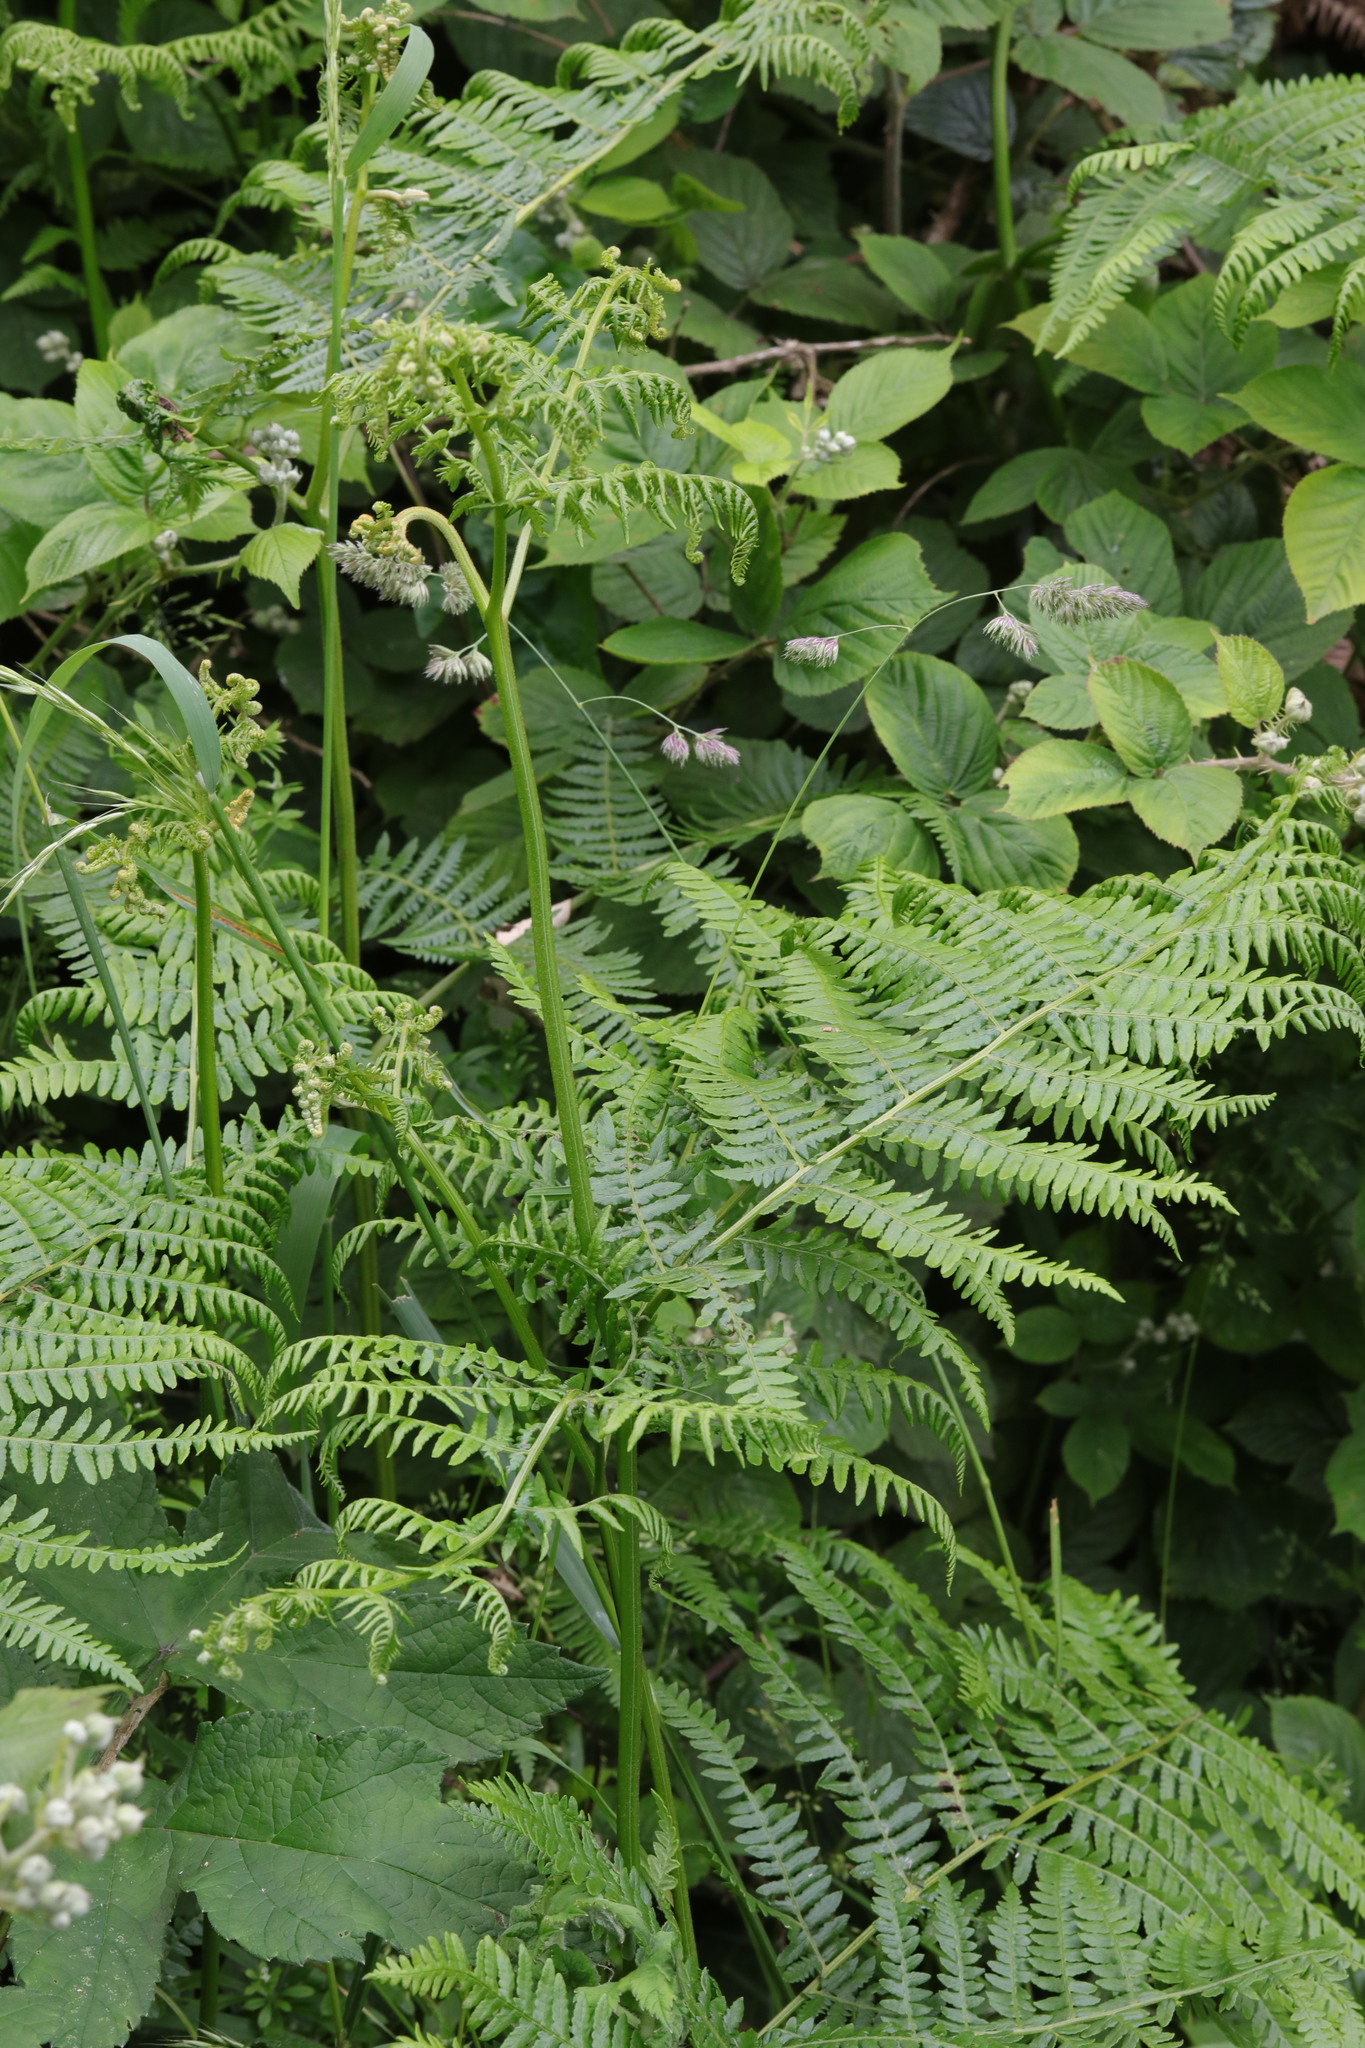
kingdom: Plantae
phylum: Tracheophyta
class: Polypodiopsida
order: Polypodiales
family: Dennstaedtiaceae
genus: Pteridium
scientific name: Pteridium aquilinum
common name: Bracken
